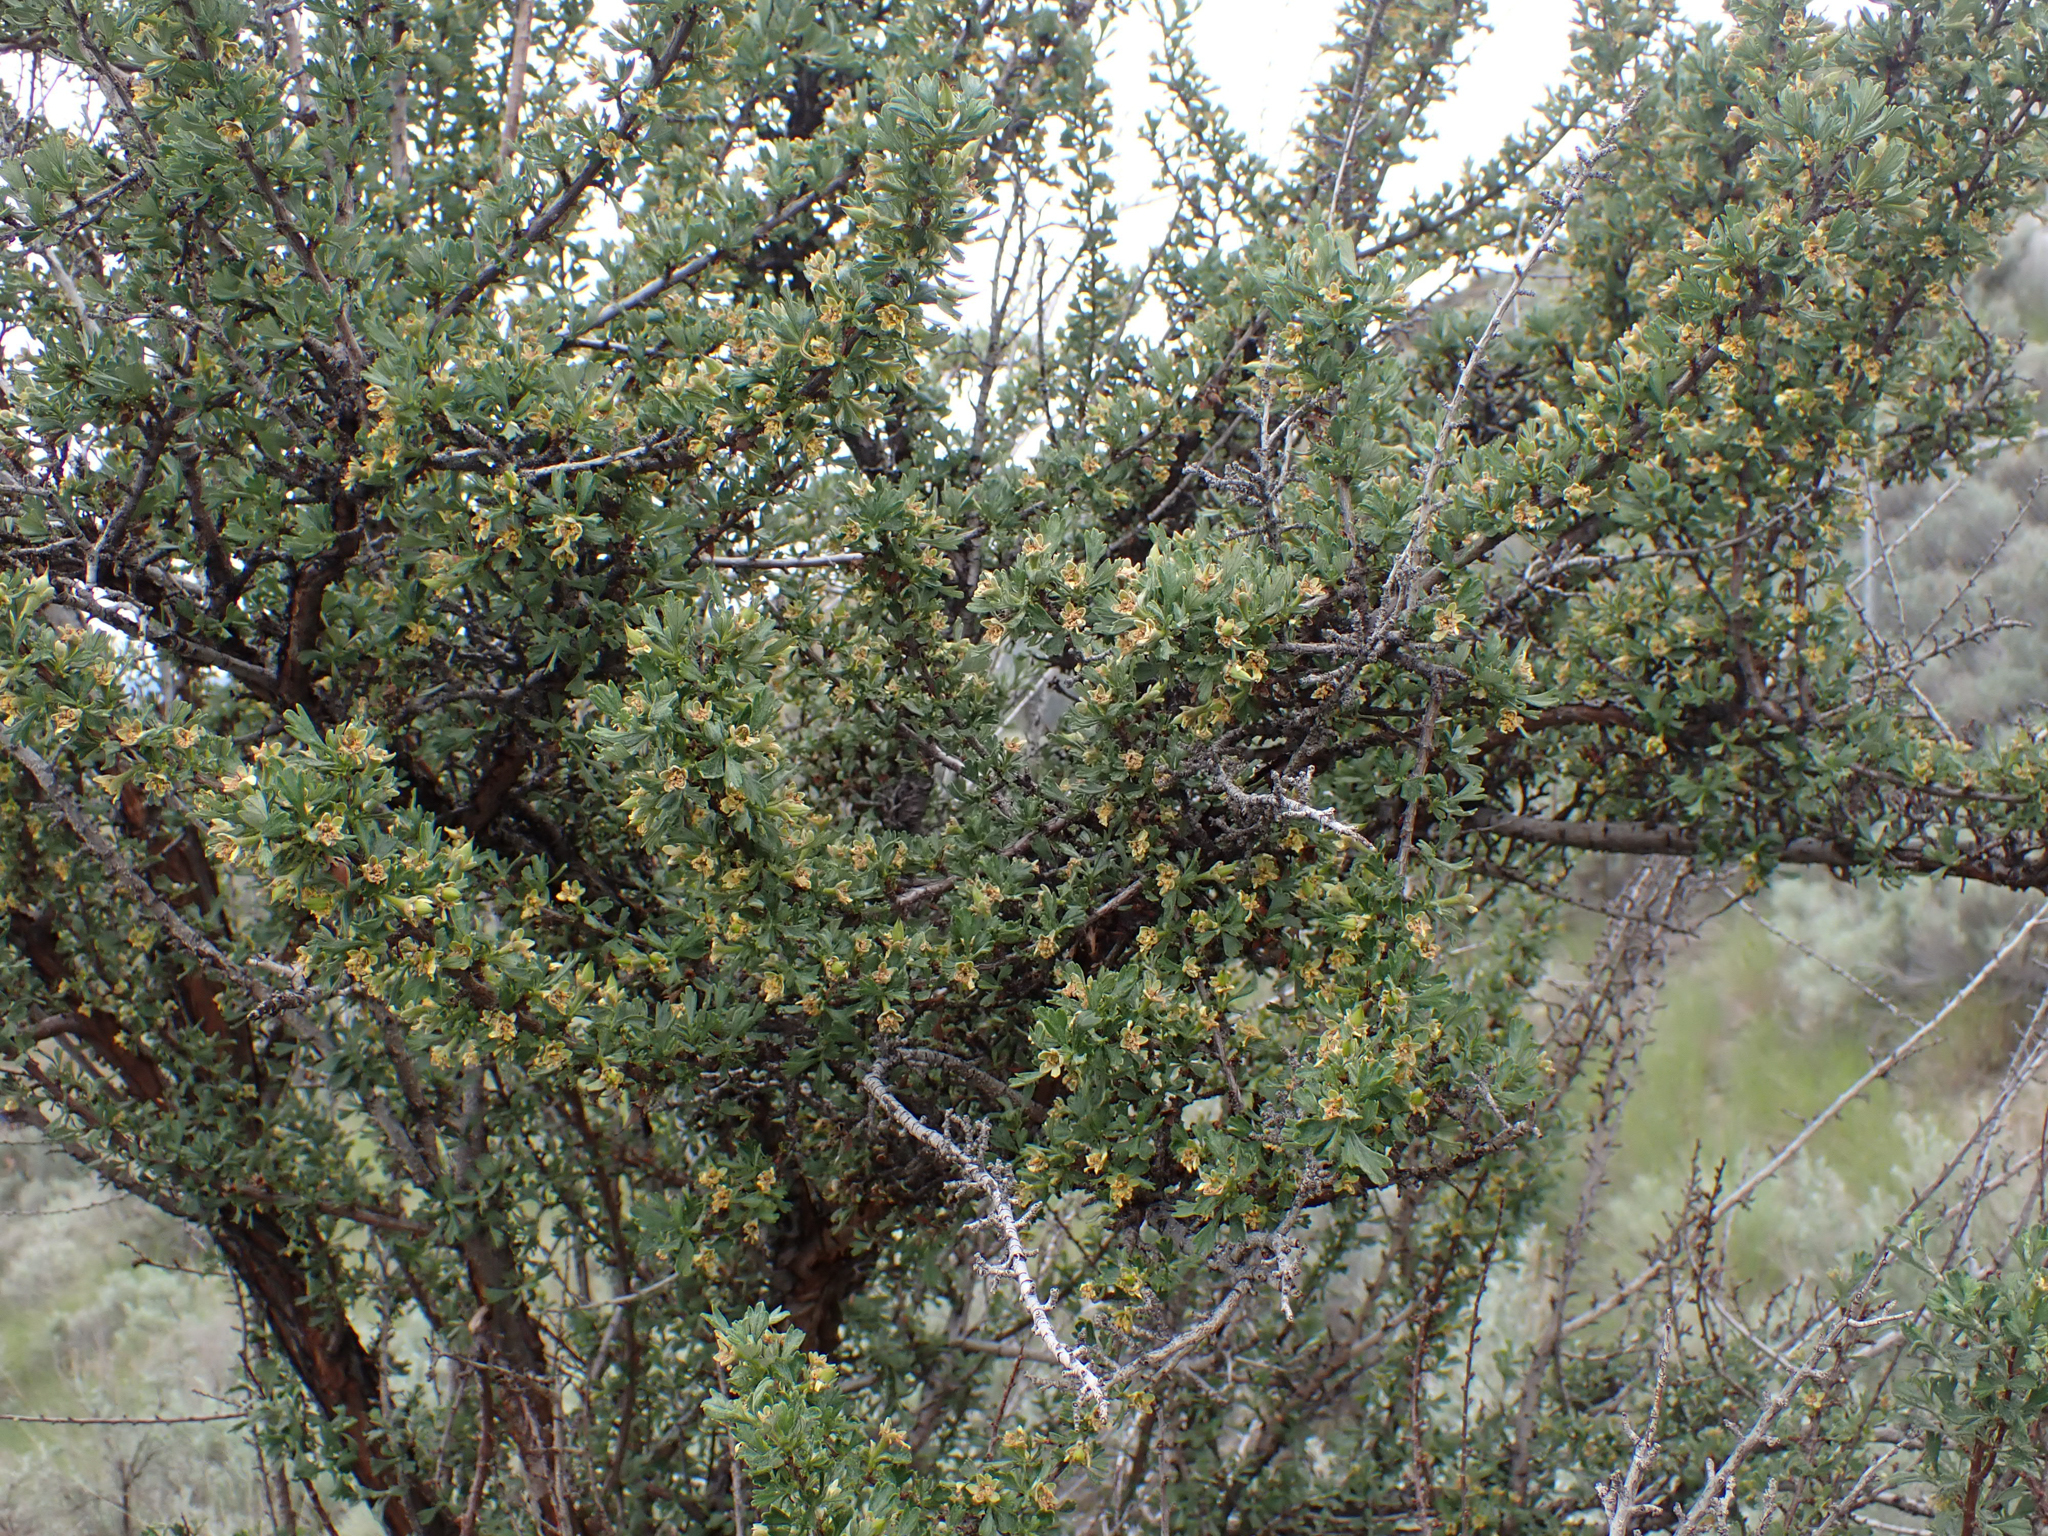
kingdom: Plantae
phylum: Tracheophyta
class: Magnoliopsida
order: Rosales
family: Rosaceae
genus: Purshia
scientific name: Purshia tridentata
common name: Antelope bitterbrush
